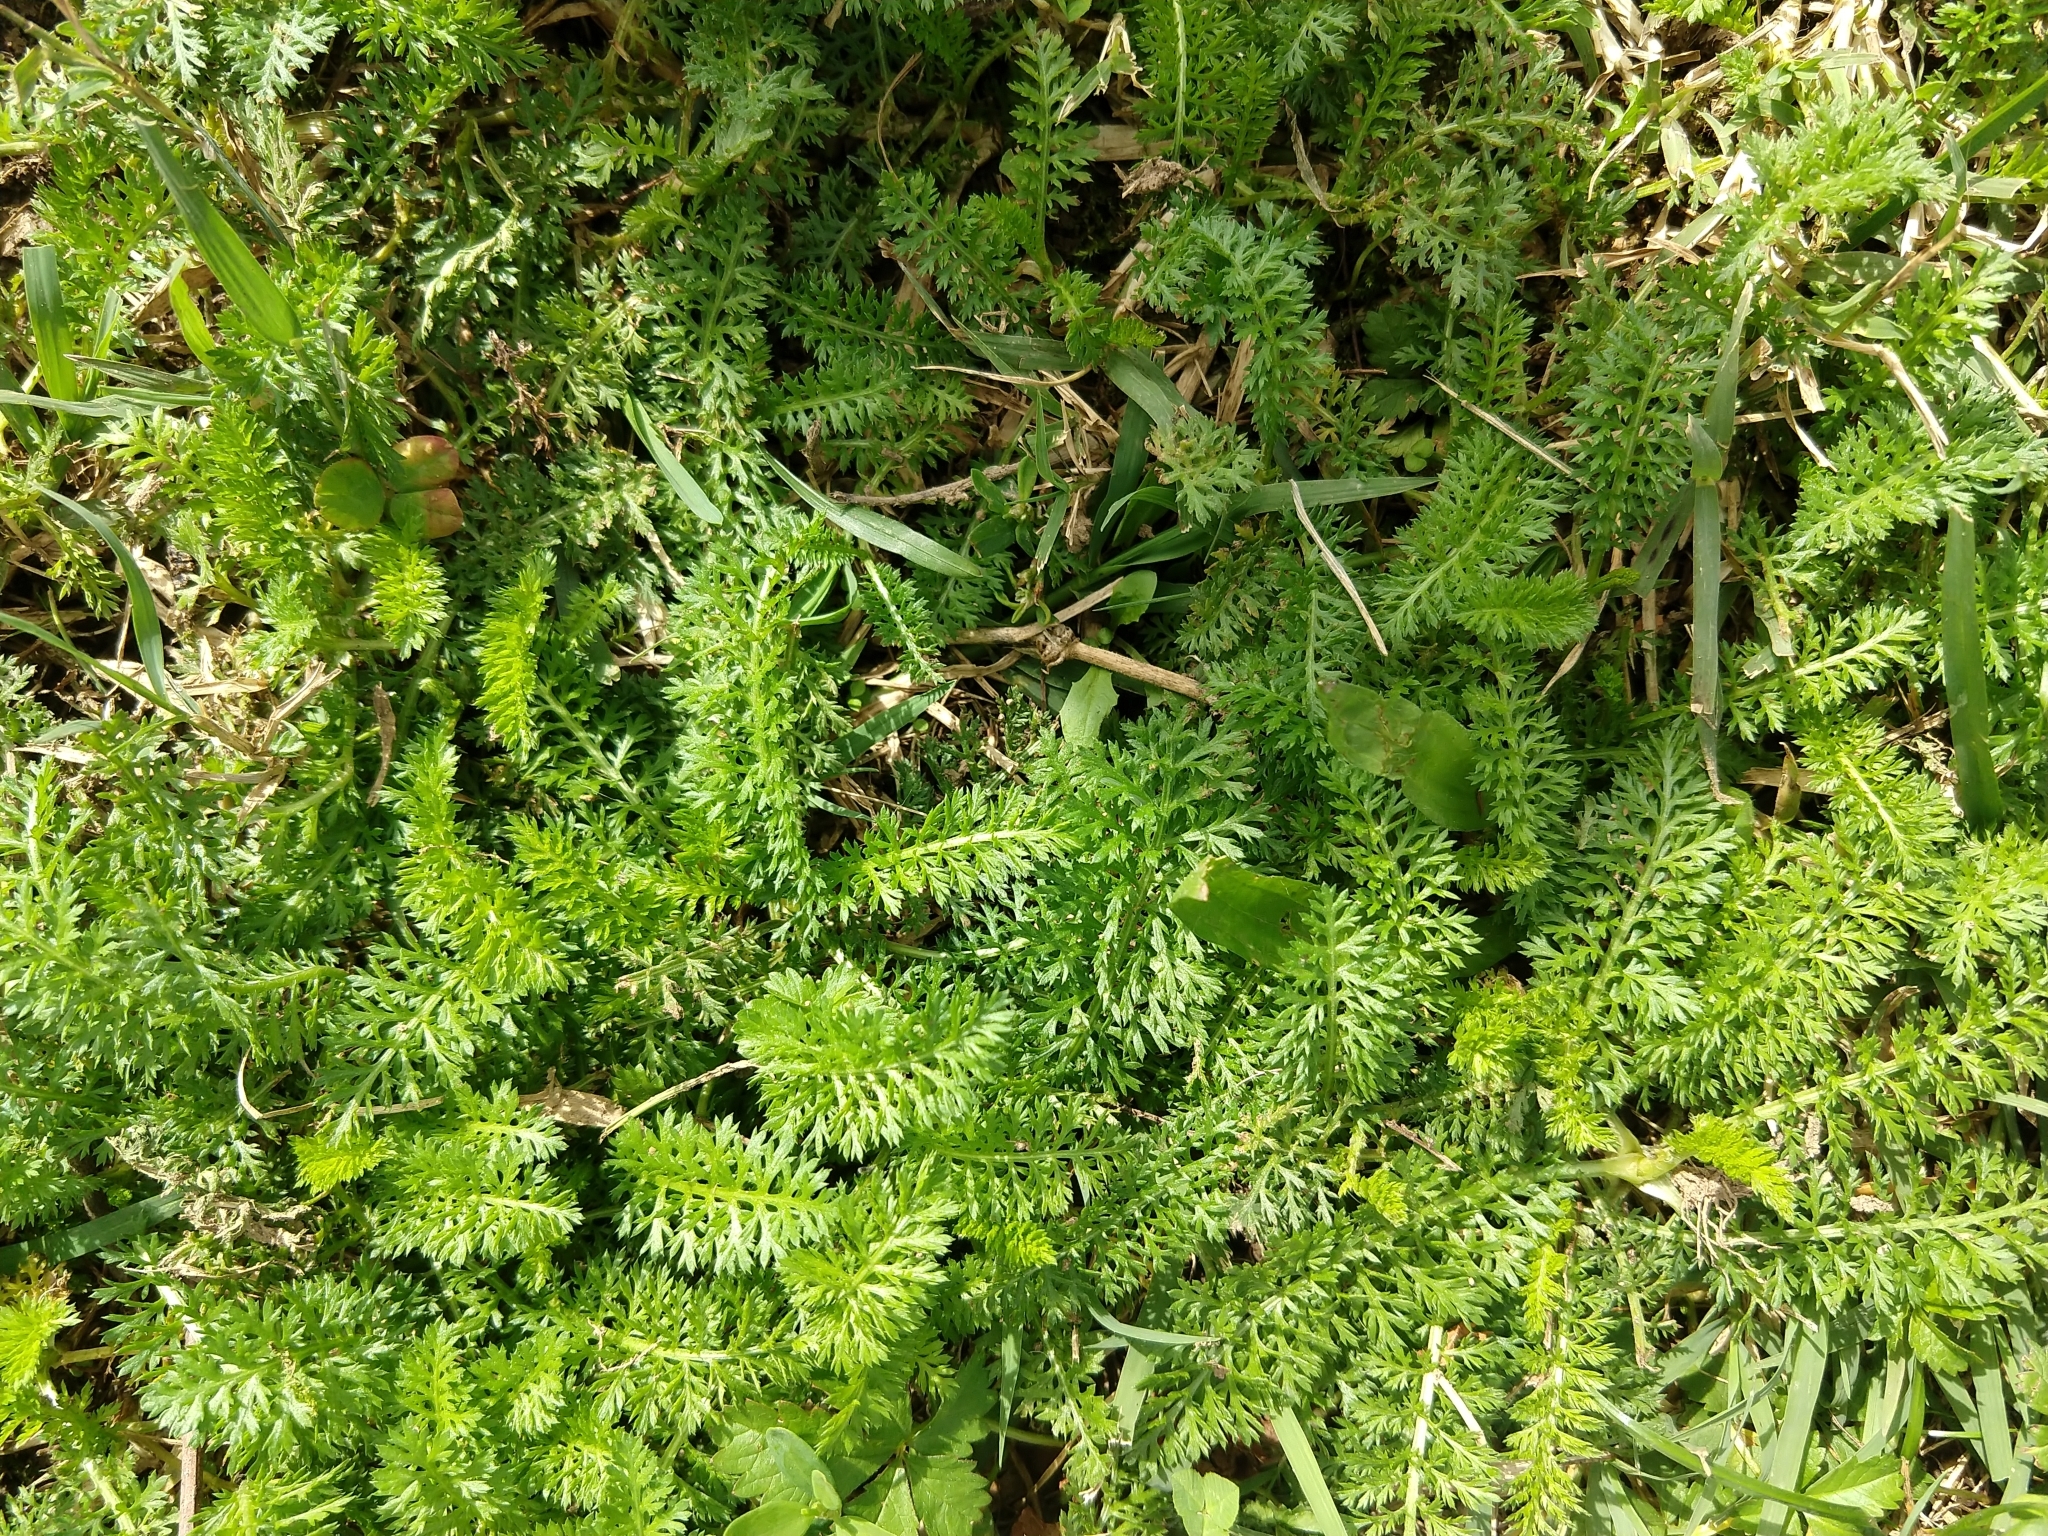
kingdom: Plantae
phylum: Tracheophyta
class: Magnoliopsida
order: Asterales
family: Asteraceae
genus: Achillea
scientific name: Achillea millefolium
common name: Yarrow
